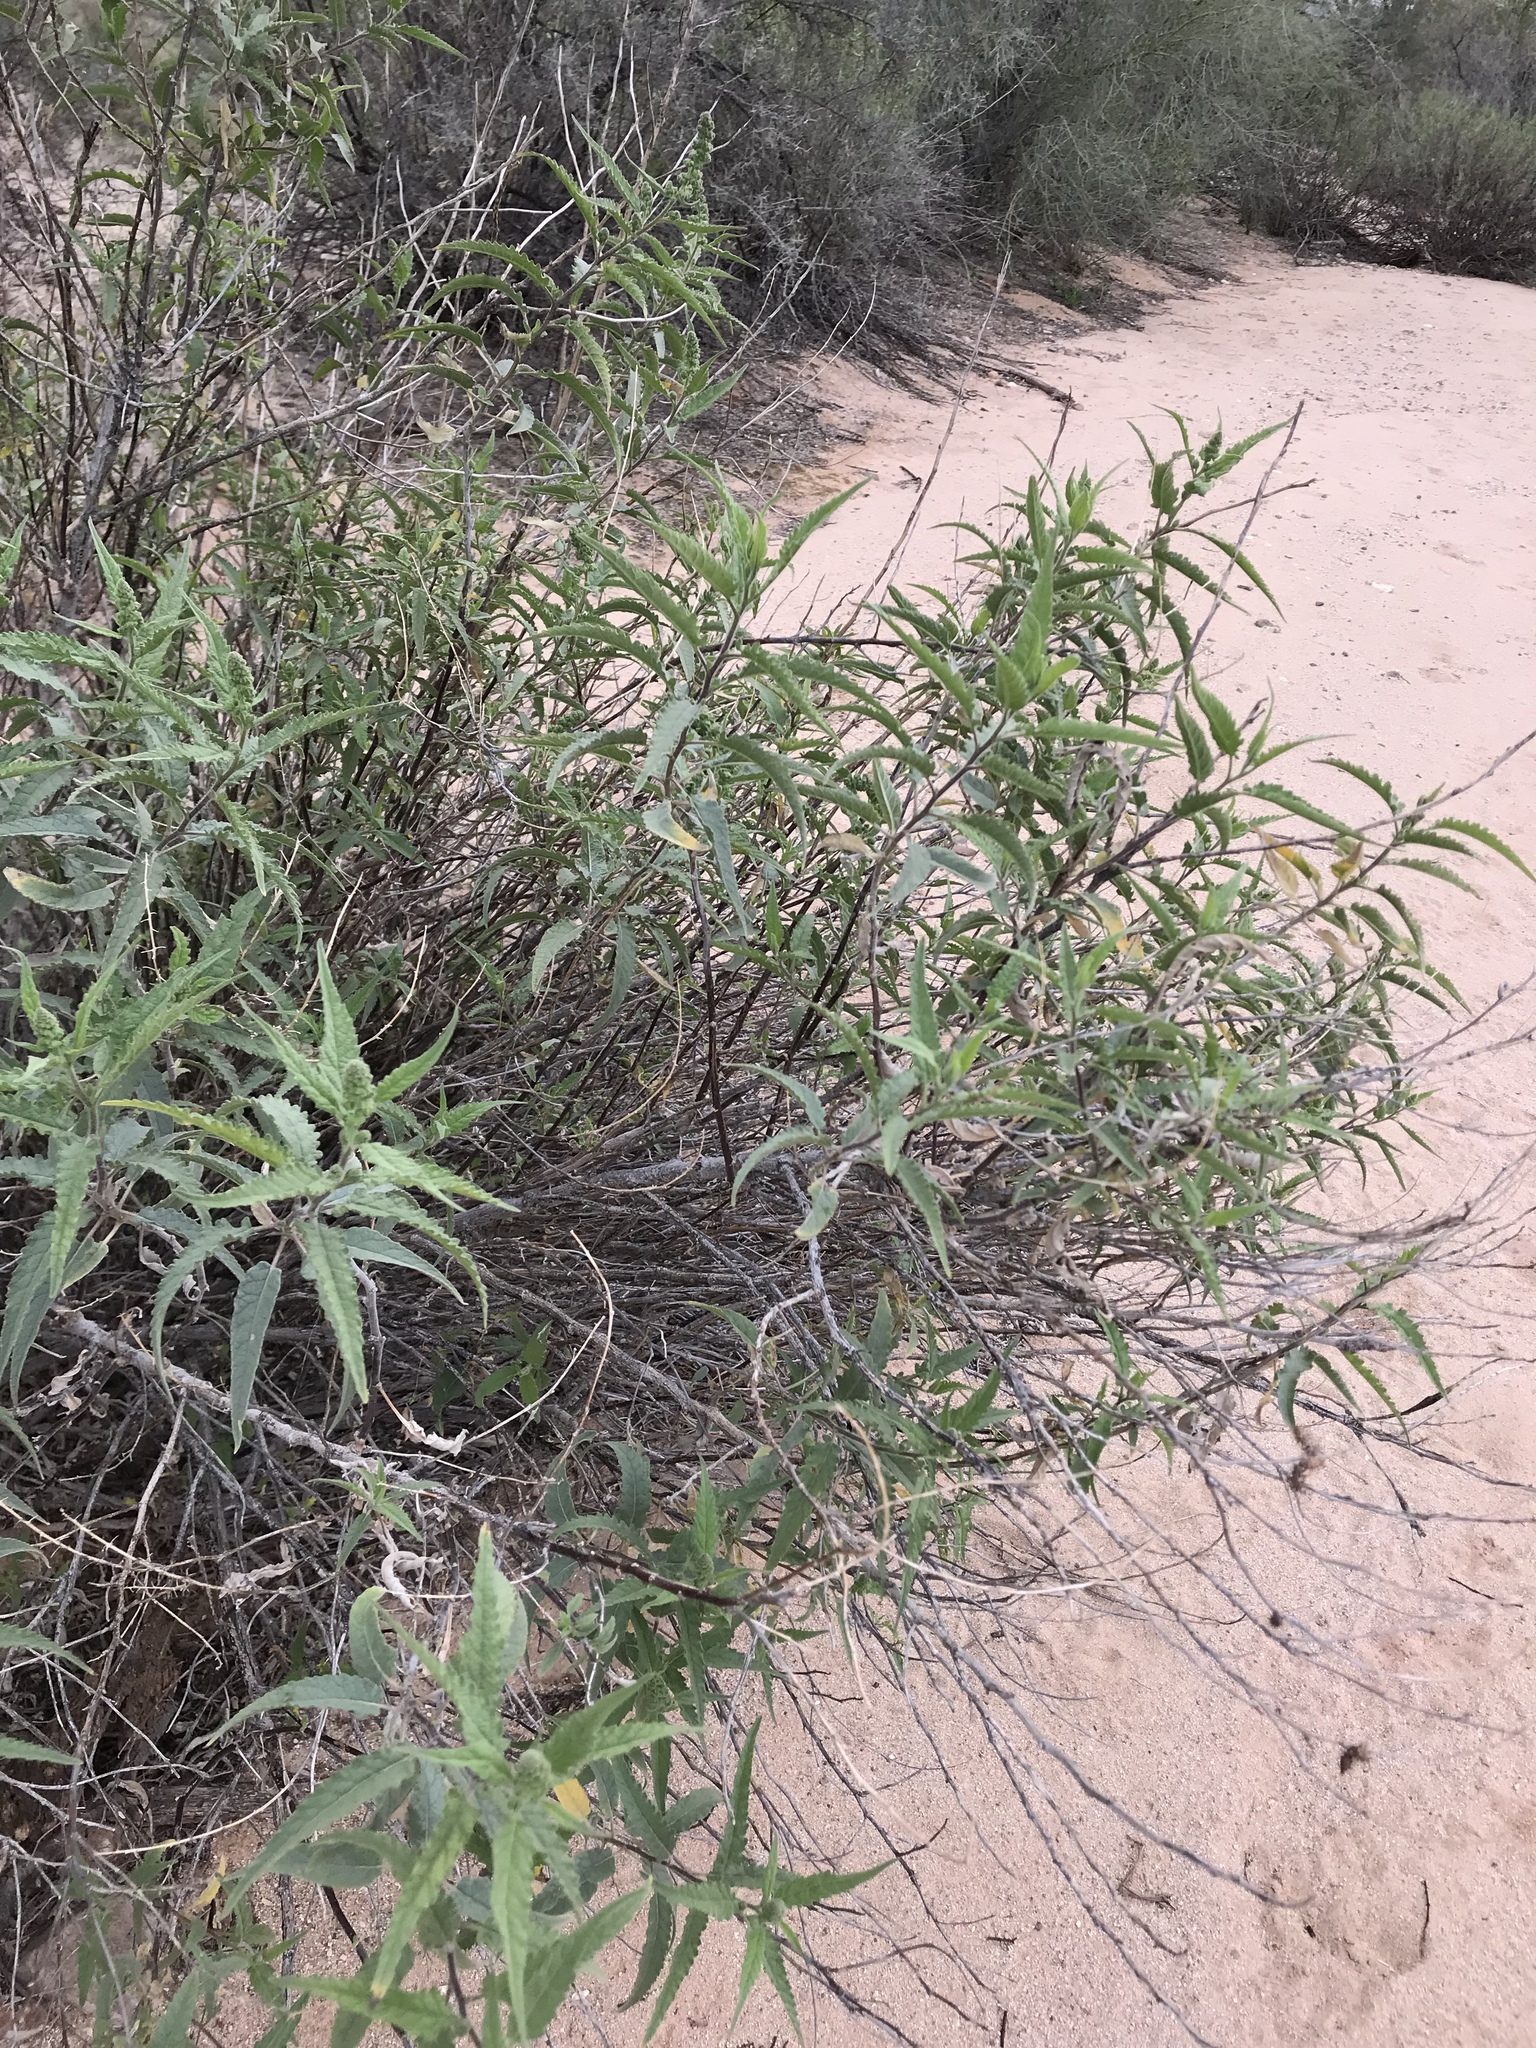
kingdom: Plantae
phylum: Tracheophyta
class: Magnoliopsida
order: Asterales
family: Asteraceae
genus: Ambrosia
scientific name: Ambrosia ambrosioides
